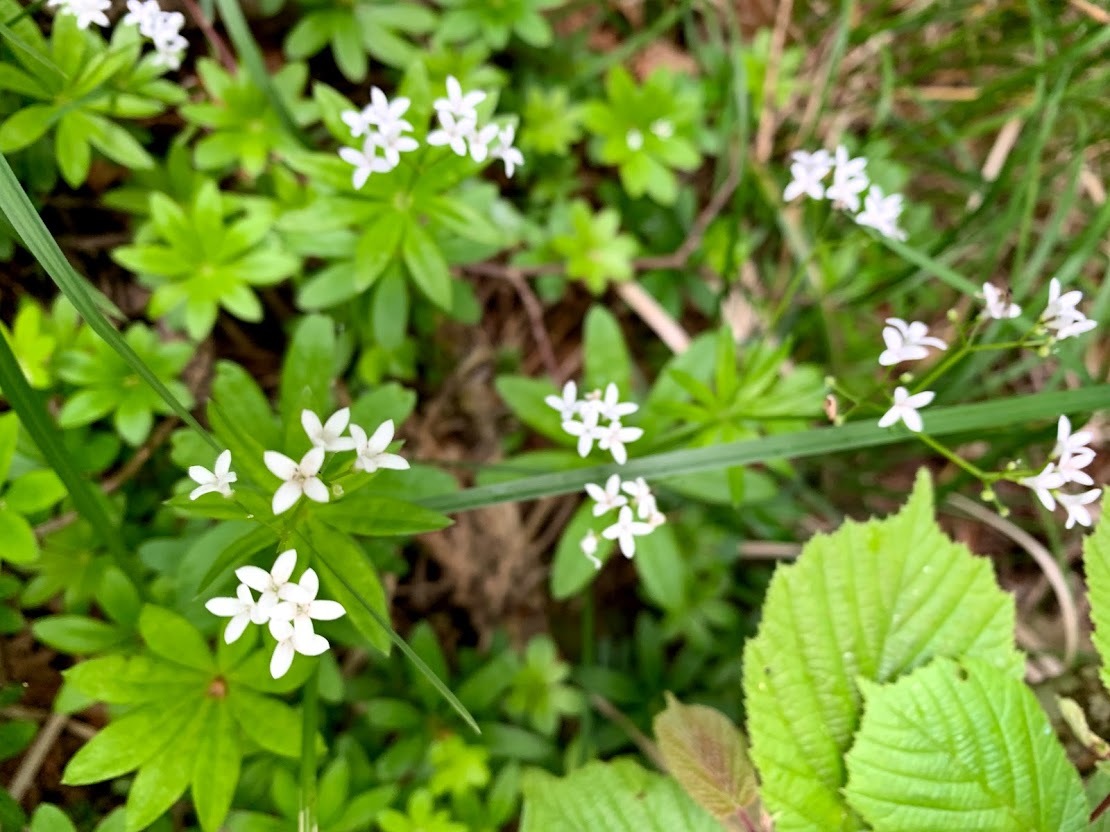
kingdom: Plantae
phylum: Tracheophyta
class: Magnoliopsida
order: Gentianales
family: Rubiaceae
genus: Galium
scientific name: Galium odoratum
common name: Sweet woodruff
